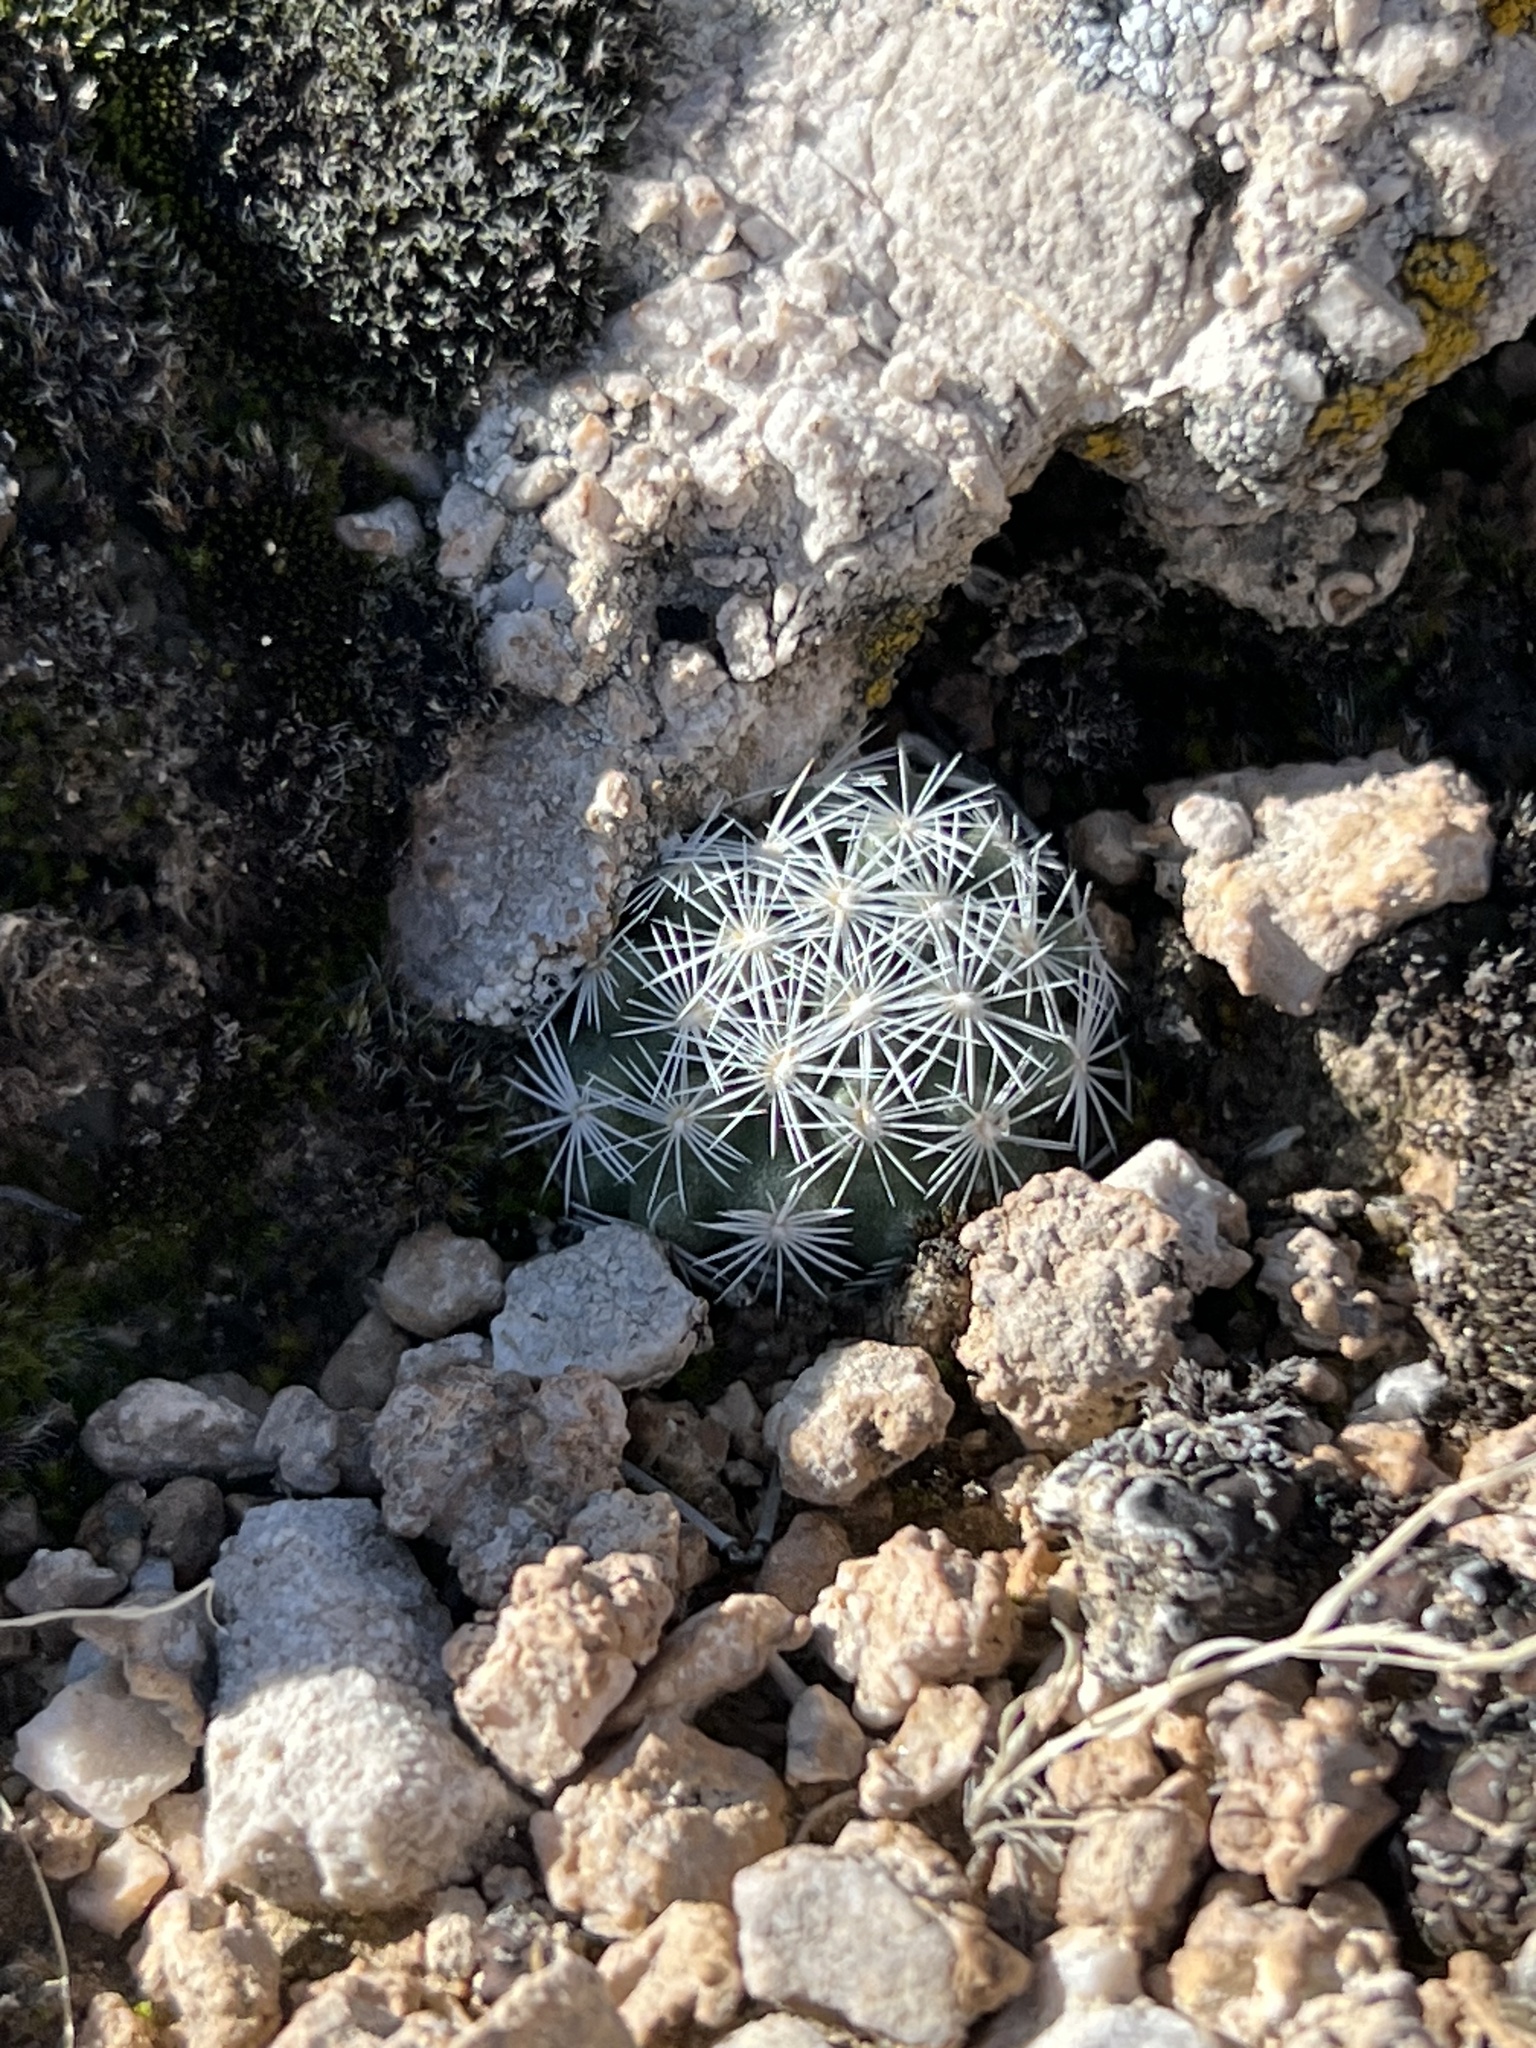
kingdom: Plantae
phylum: Tracheophyta
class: Magnoliopsida
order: Caryophyllales
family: Cactaceae
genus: Pelecyphora
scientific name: Pelecyphora dasyacantha
